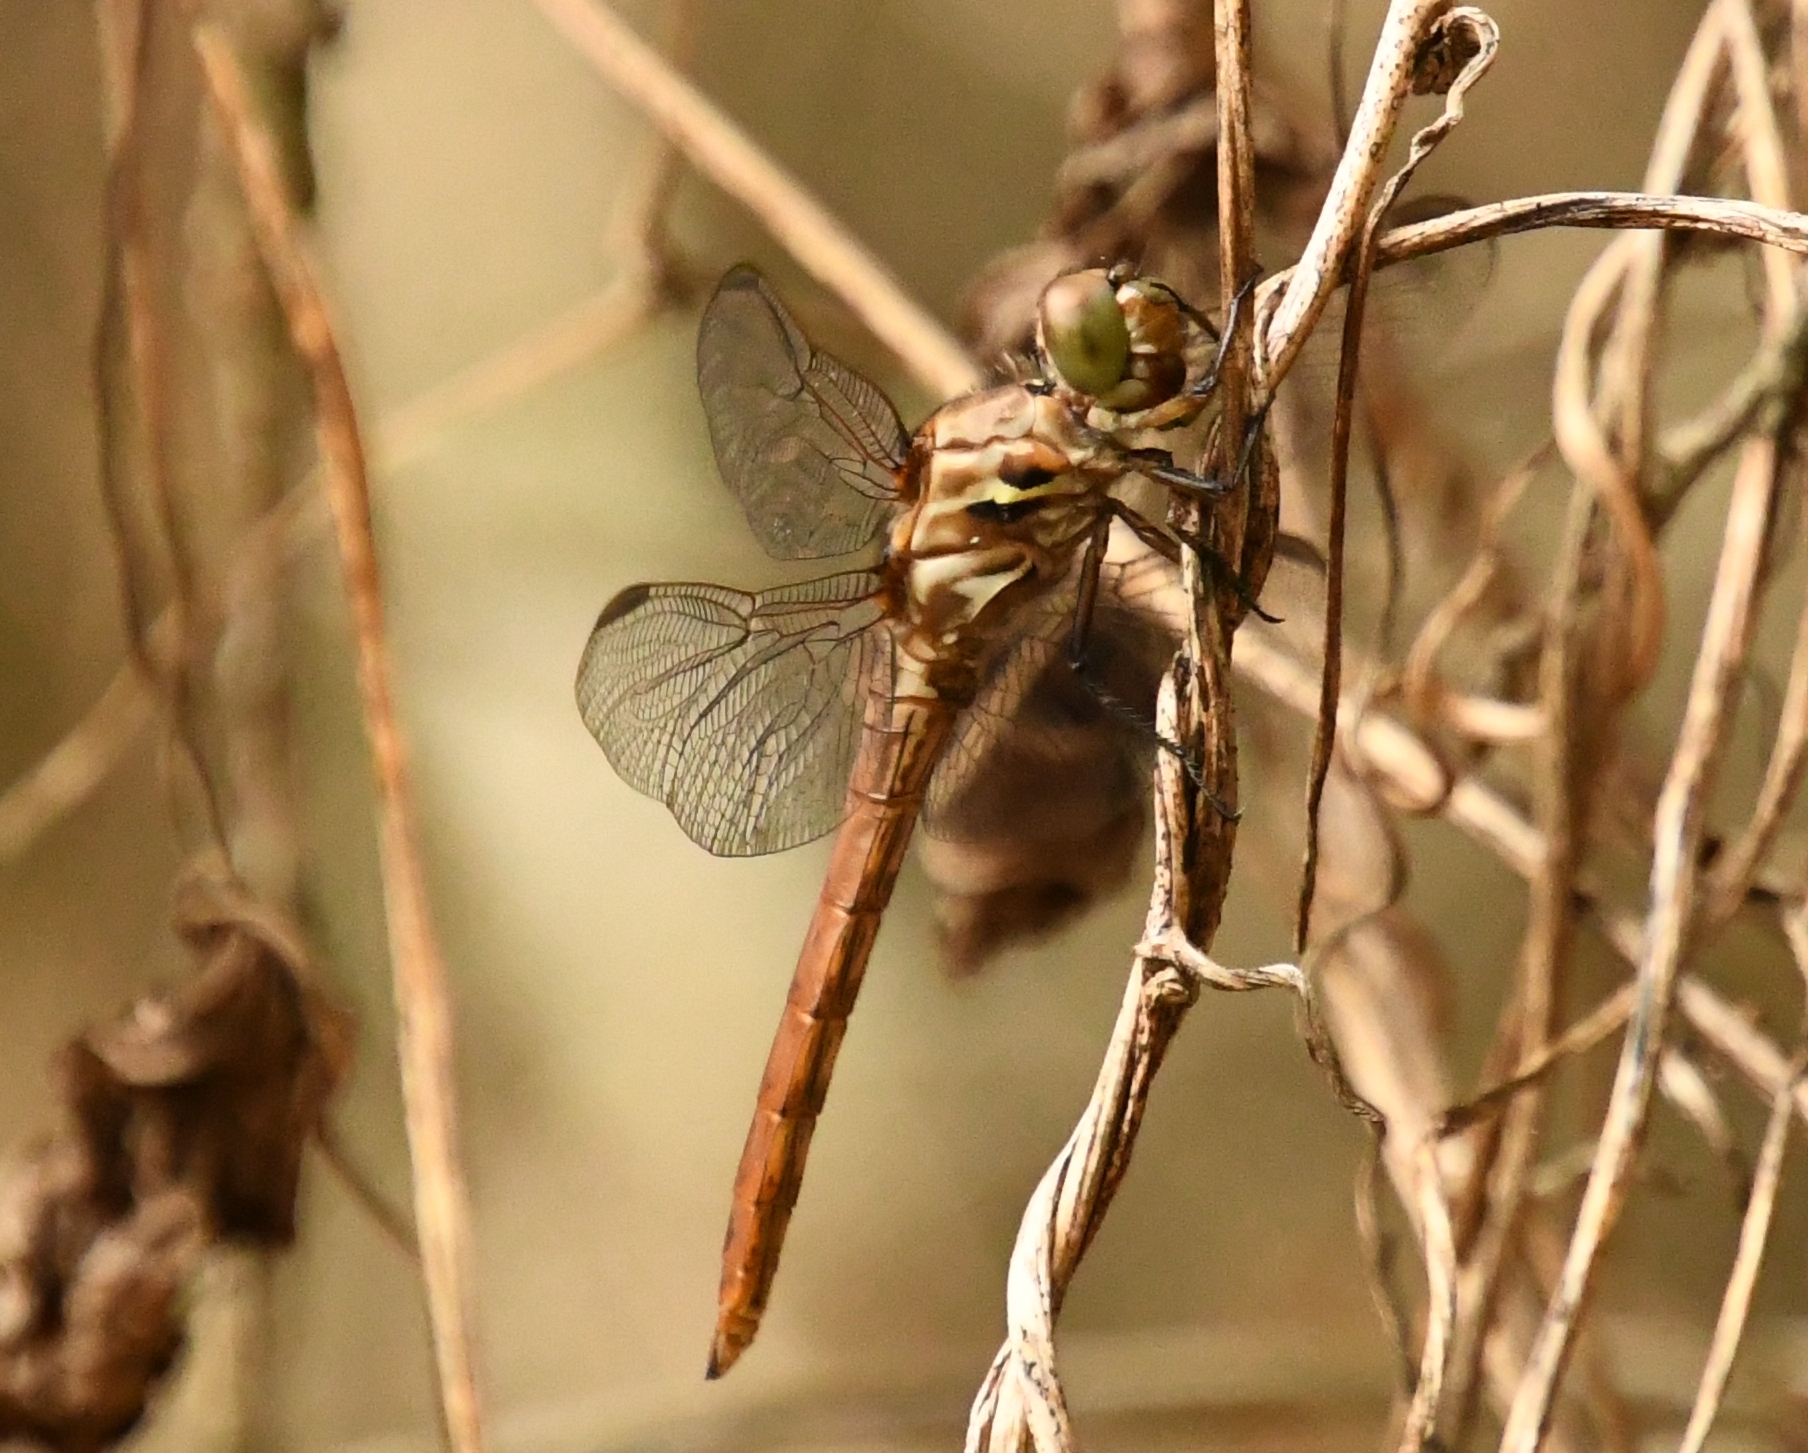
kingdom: Animalia
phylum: Arthropoda
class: Insecta
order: Odonata
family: Libellulidae
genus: Orthemis
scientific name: Orthemis ferruginea
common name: Roseate skimmer
